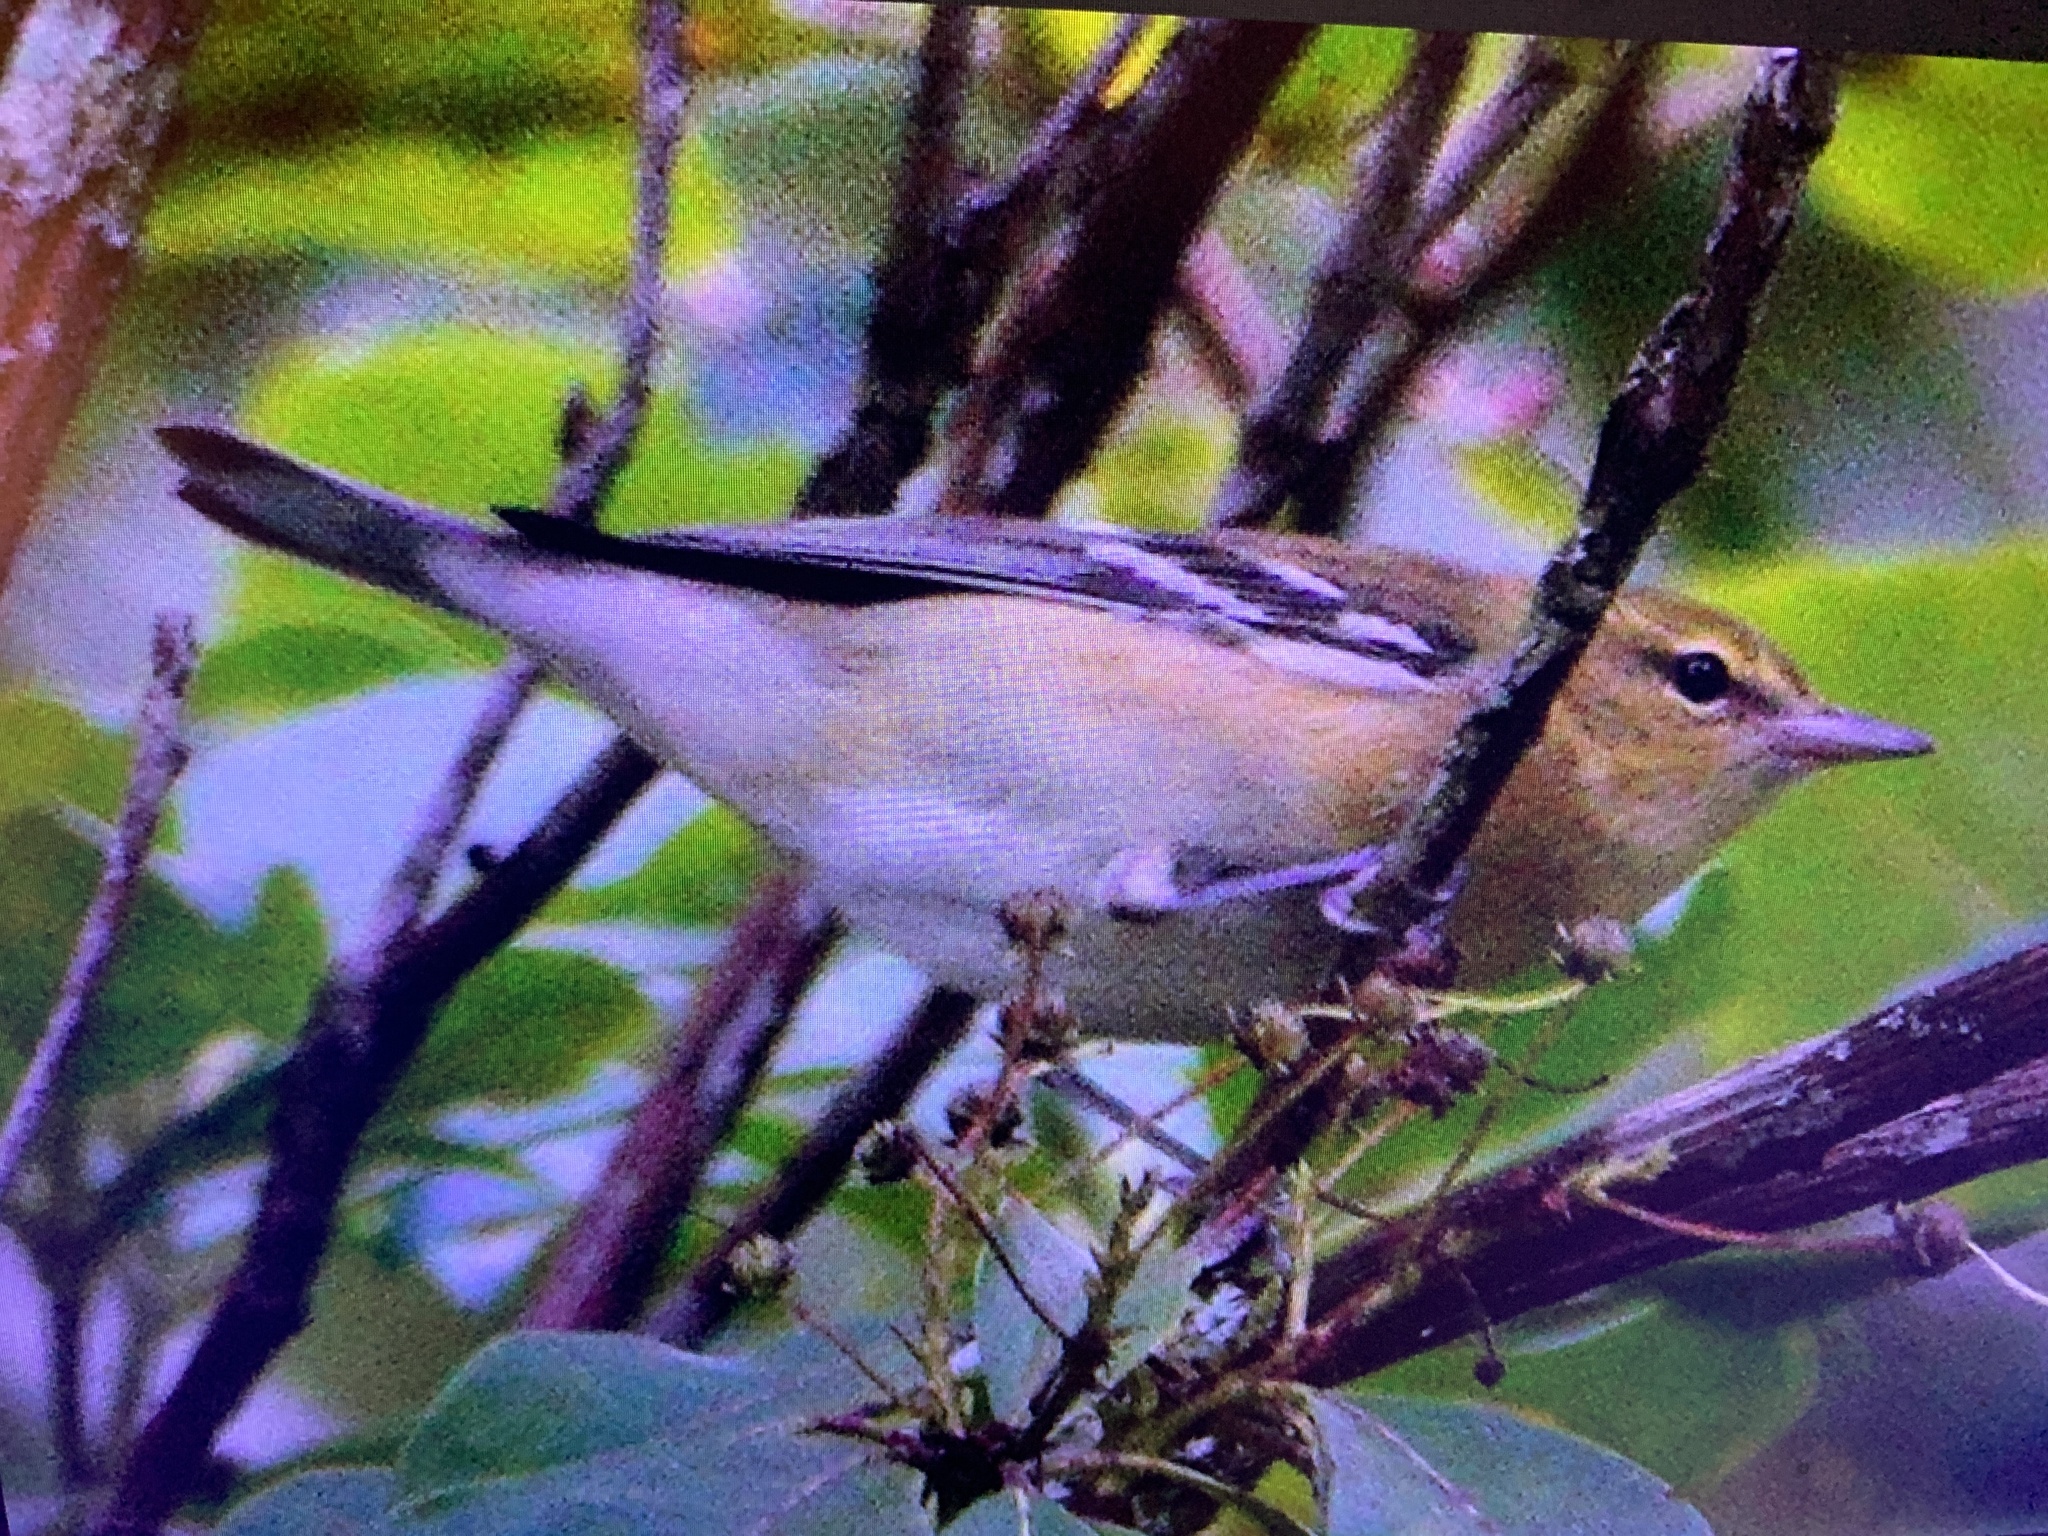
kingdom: Animalia
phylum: Chordata
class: Aves
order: Passeriformes
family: Parulidae
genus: Setophaga
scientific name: Setophaga castanea
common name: Bay-breasted warbler
